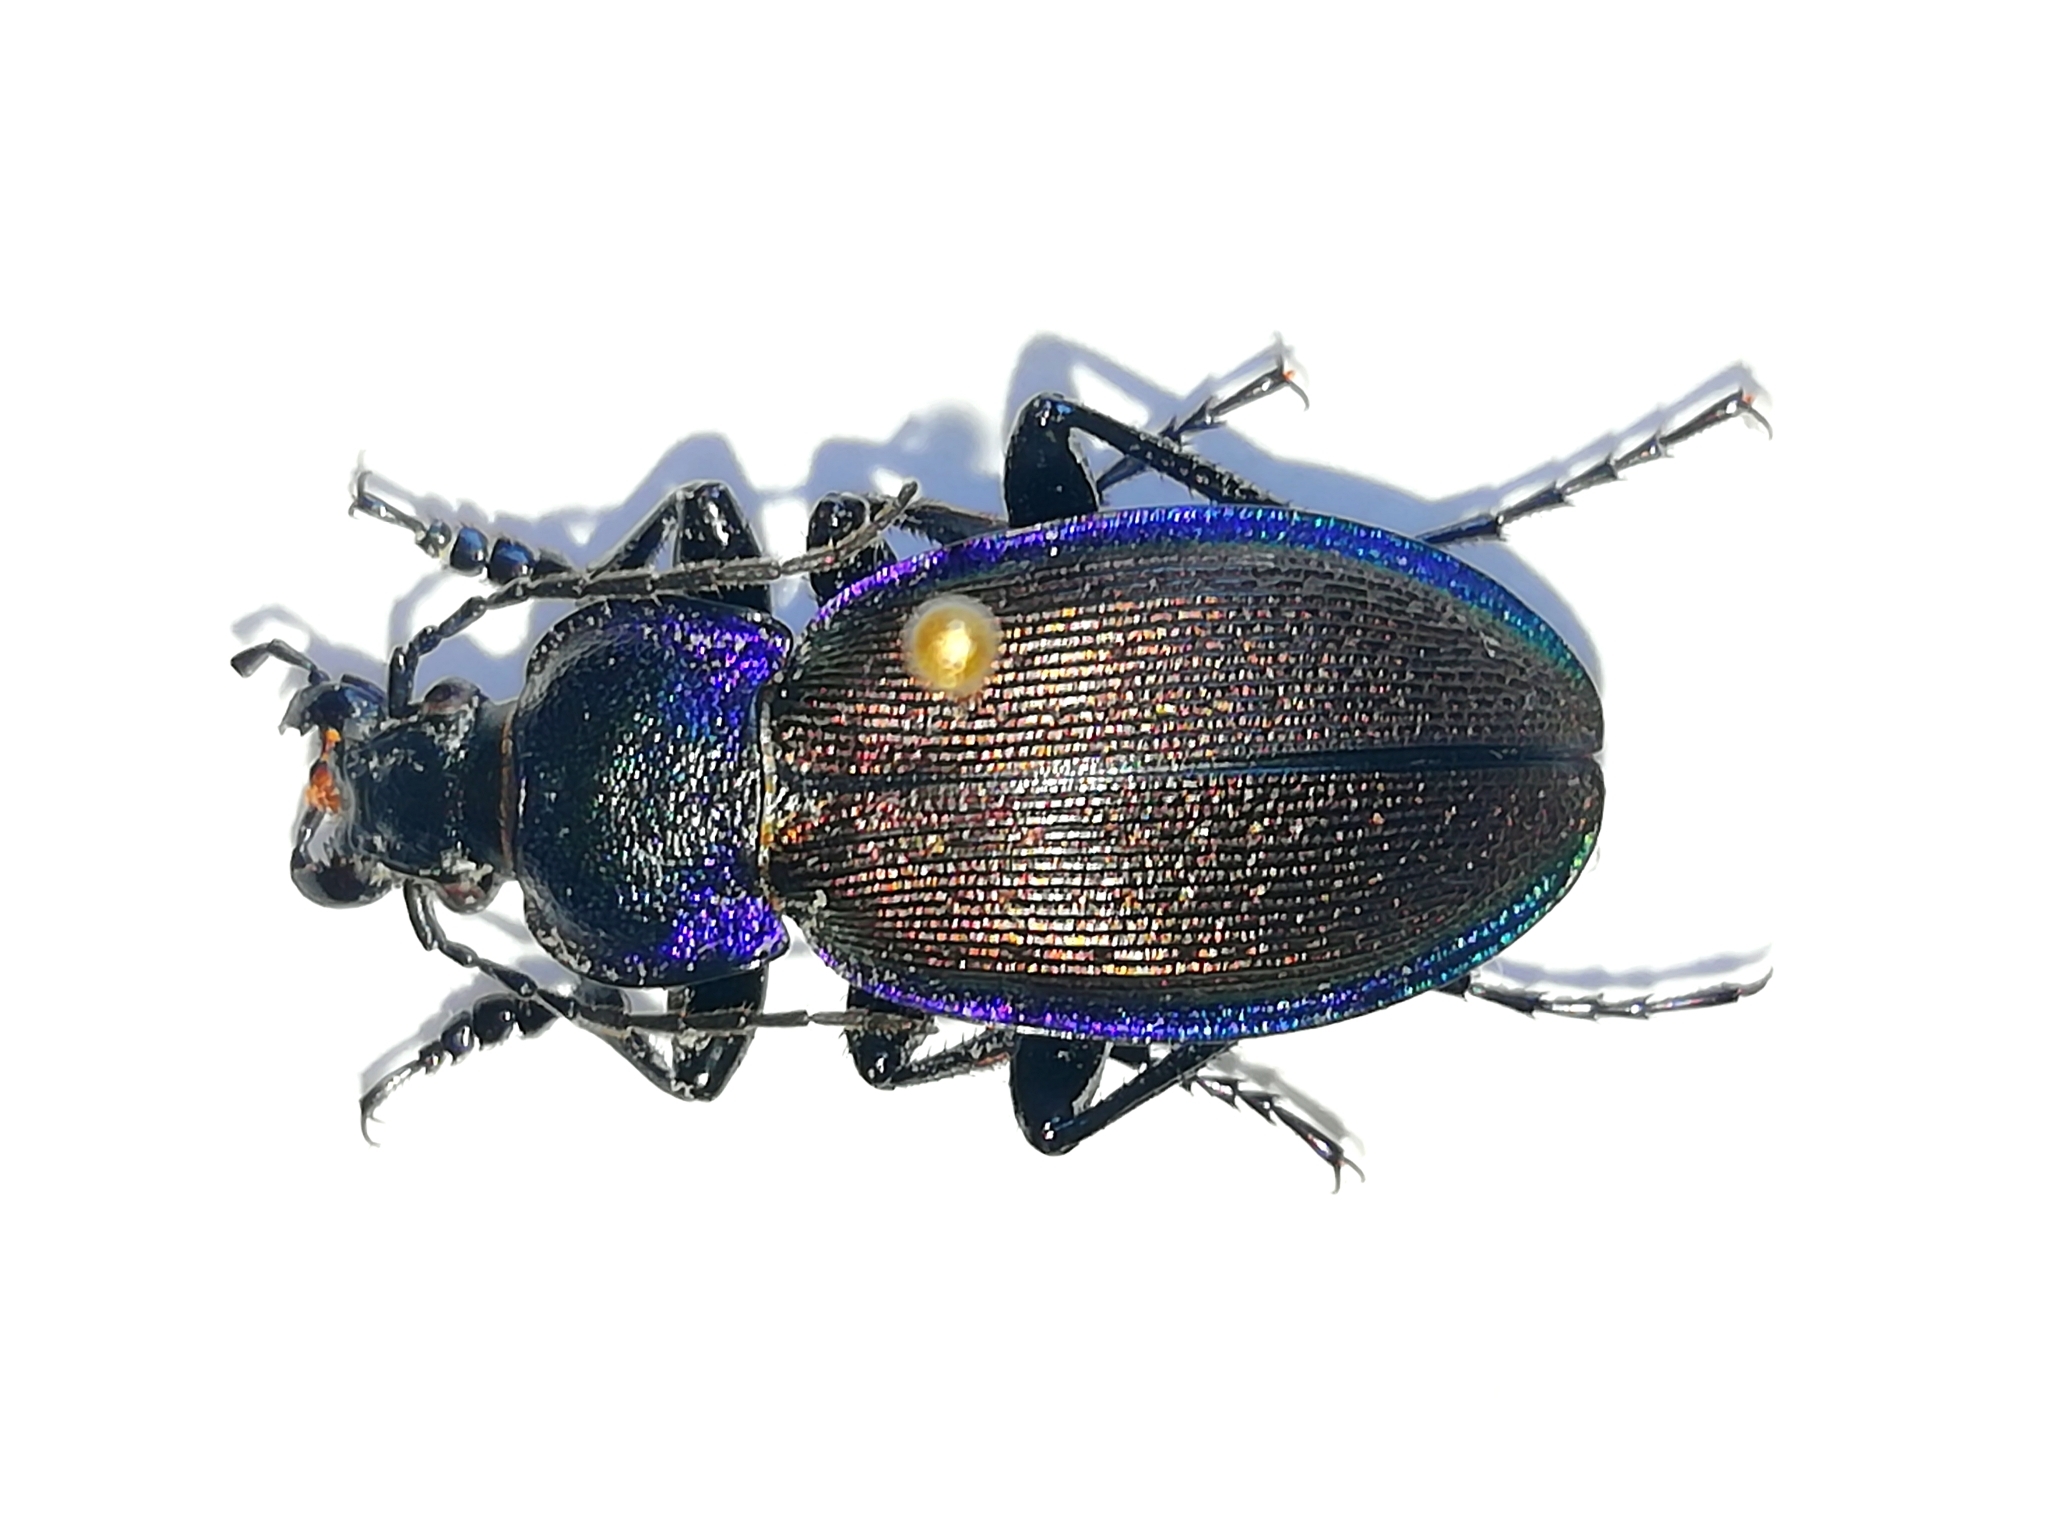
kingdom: Animalia
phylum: Arthropoda
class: Insecta
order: Coleoptera
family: Carabidae
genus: Carabus
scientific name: Carabus regalis
